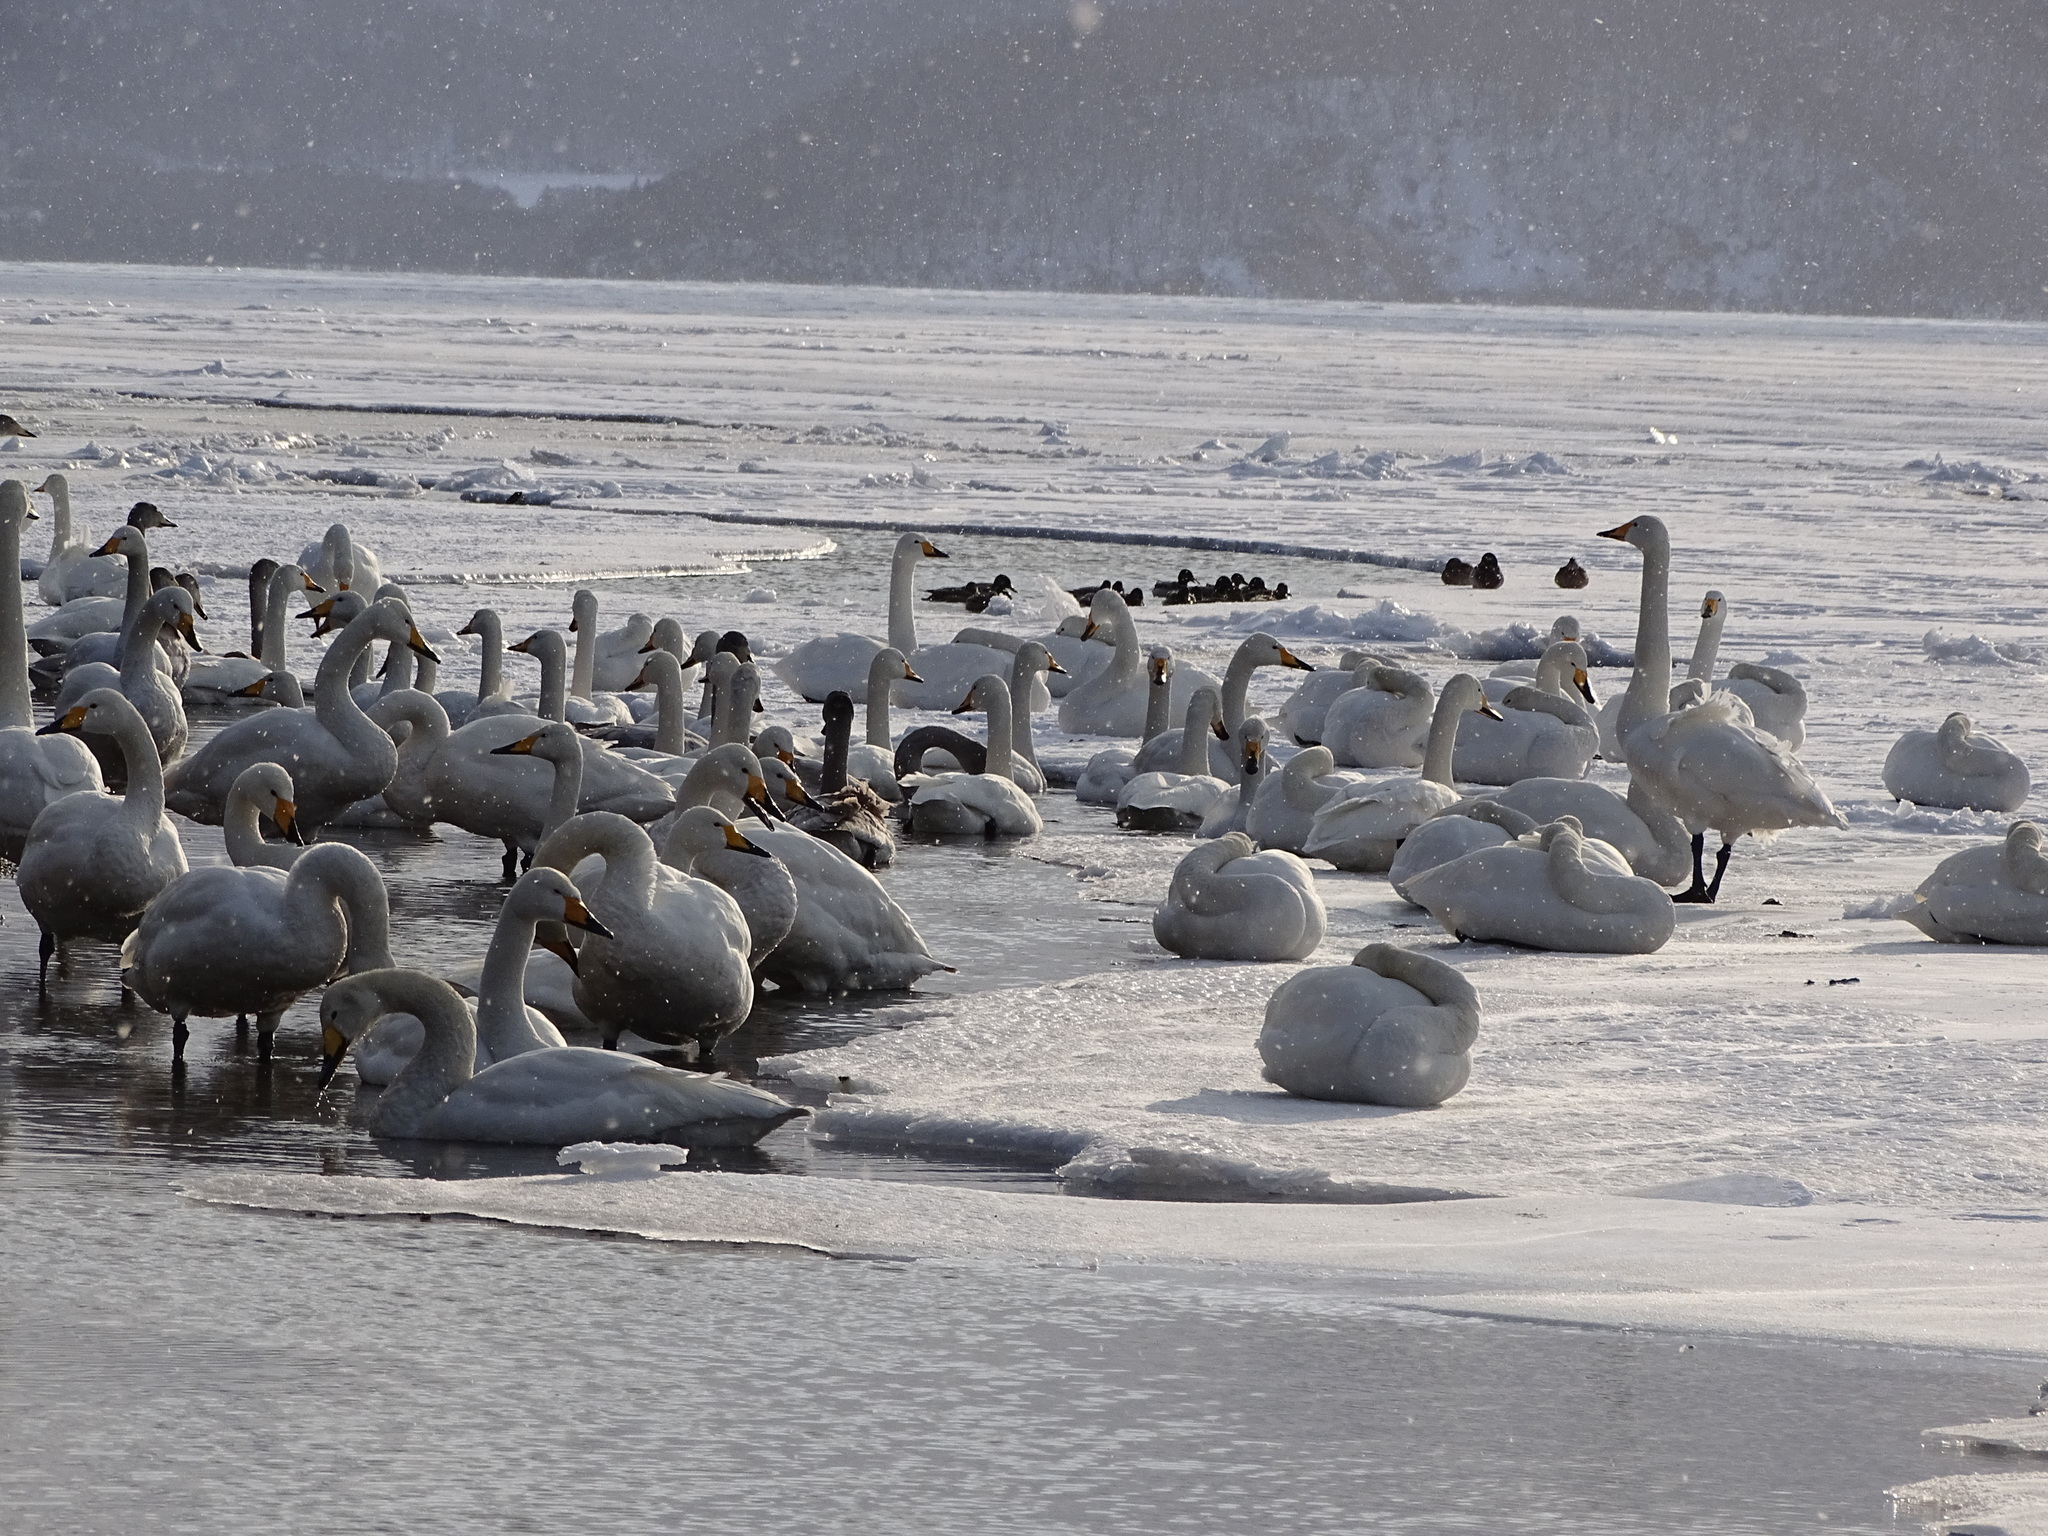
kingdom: Animalia
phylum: Chordata
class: Aves
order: Anseriformes
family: Anatidae
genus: Cygnus
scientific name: Cygnus cygnus
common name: Whooper swan
